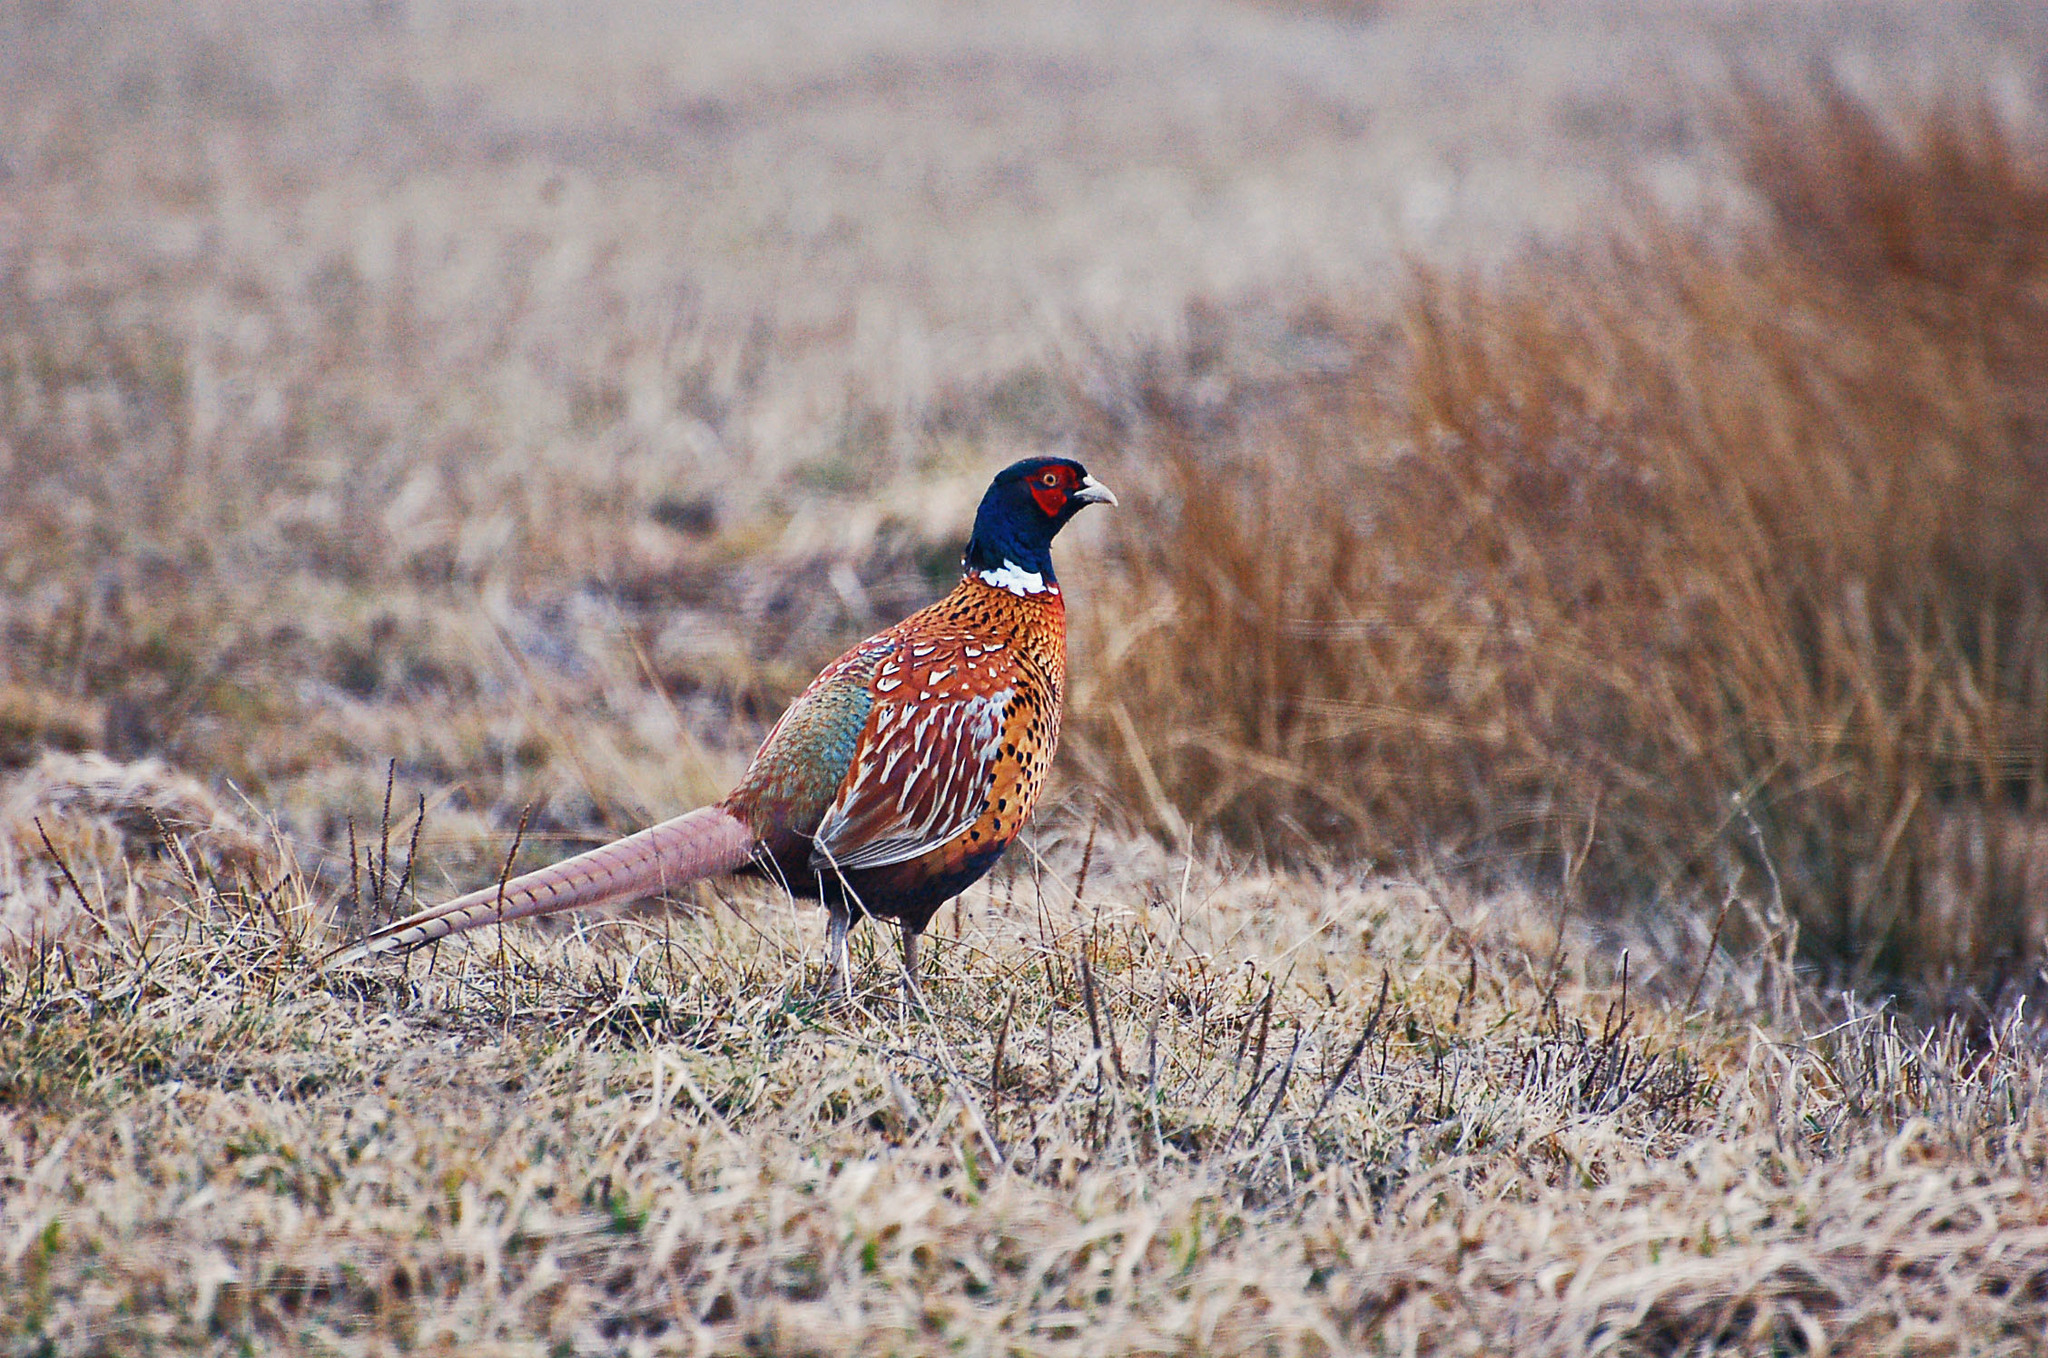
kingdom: Animalia
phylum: Chordata
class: Aves
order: Galliformes
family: Phasianidae
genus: Phasianus
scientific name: Phasianus colchicus
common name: Common pheasant
